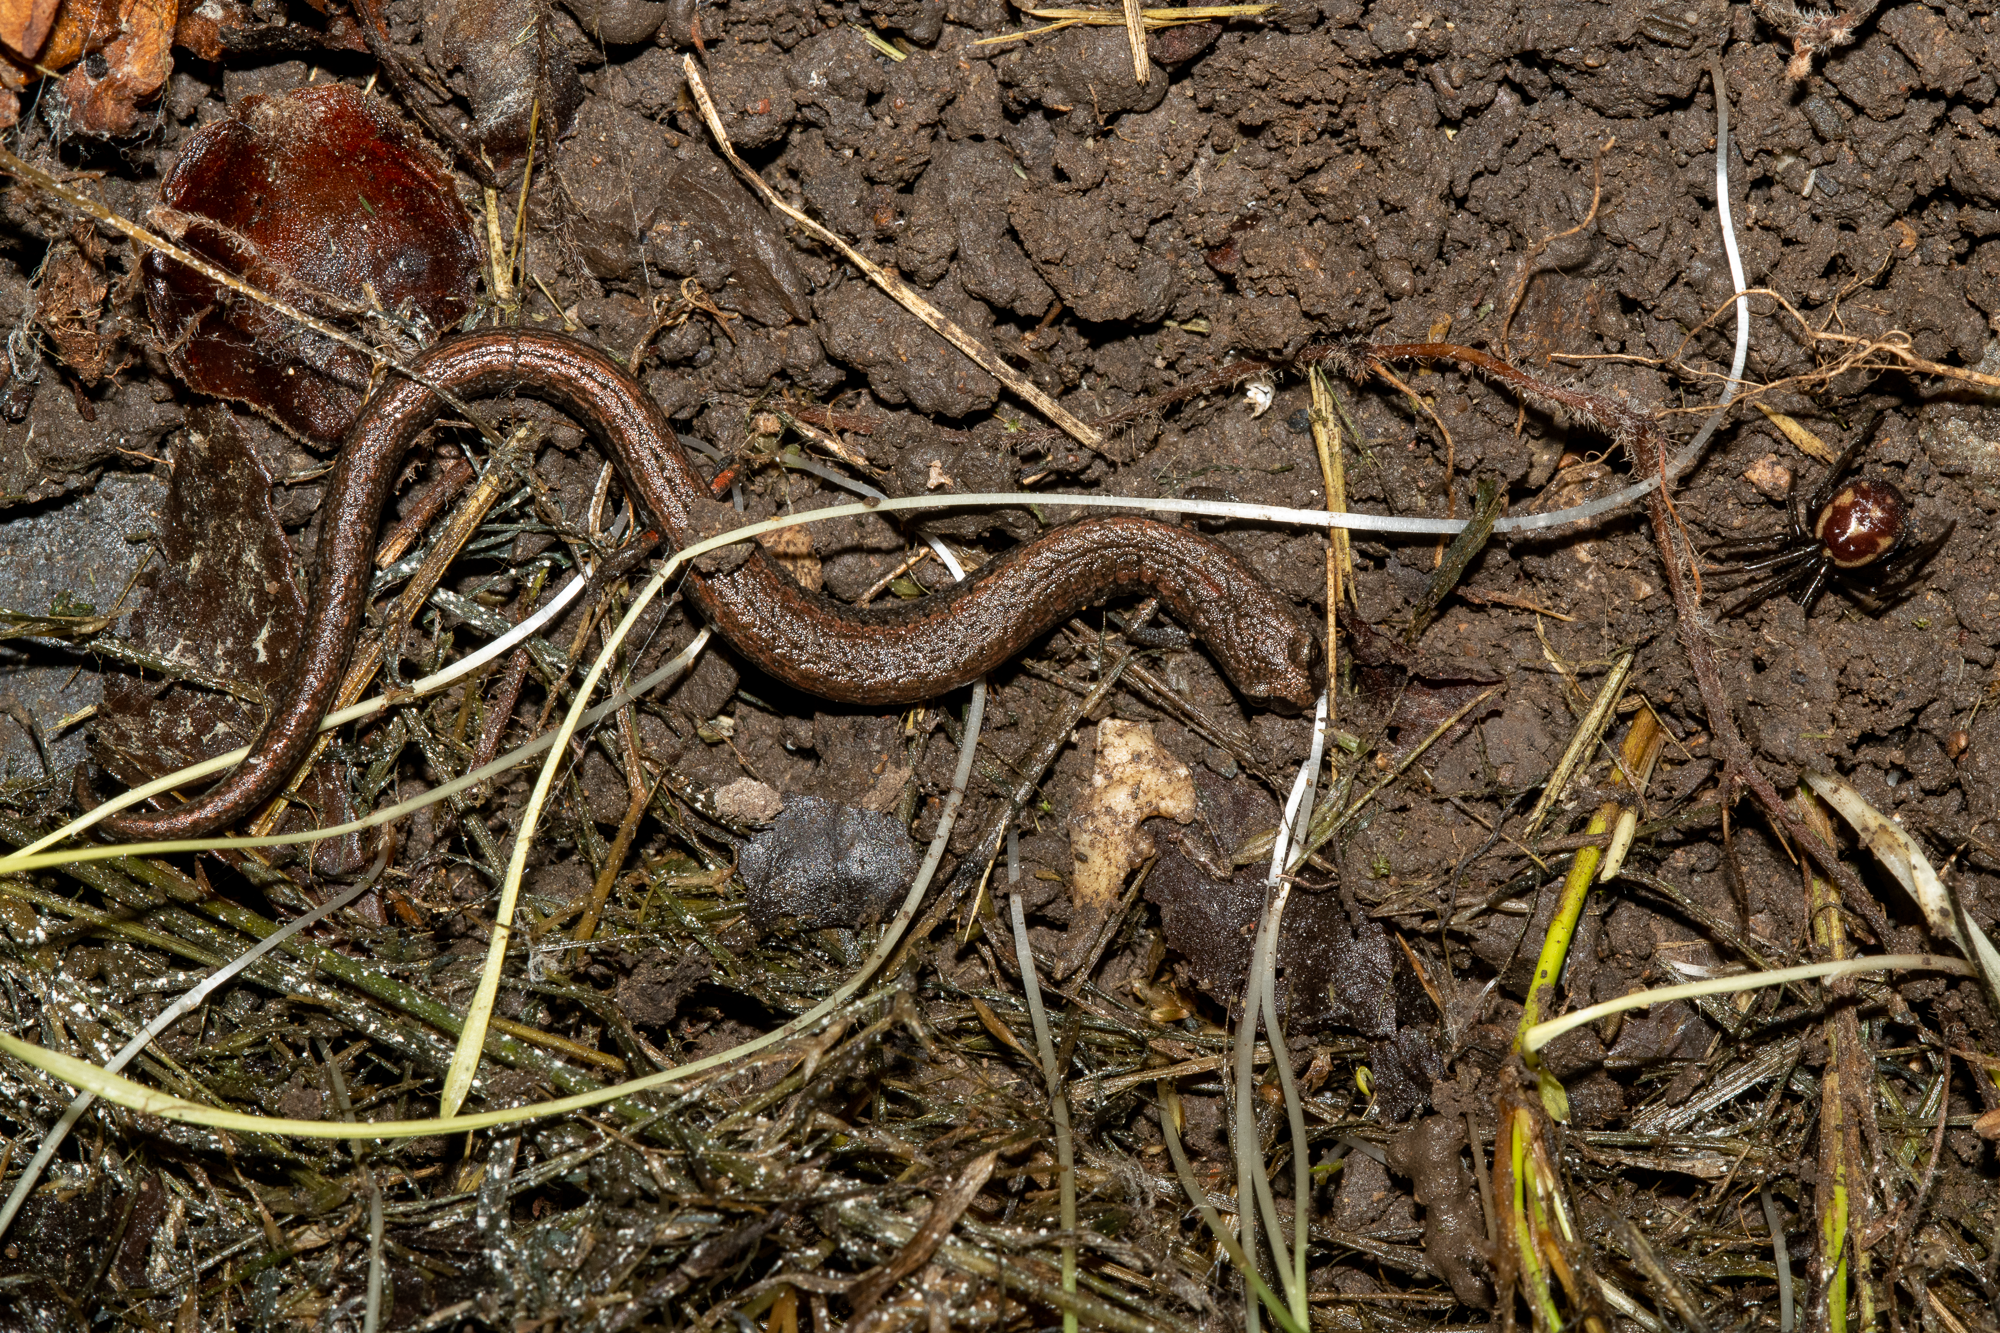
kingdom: Animalia
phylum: Chordata
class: Amphibia
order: Caudata
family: Plethodontidae
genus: Batrachoseps
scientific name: Batrachoseps attenuatus
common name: California slender salamander
